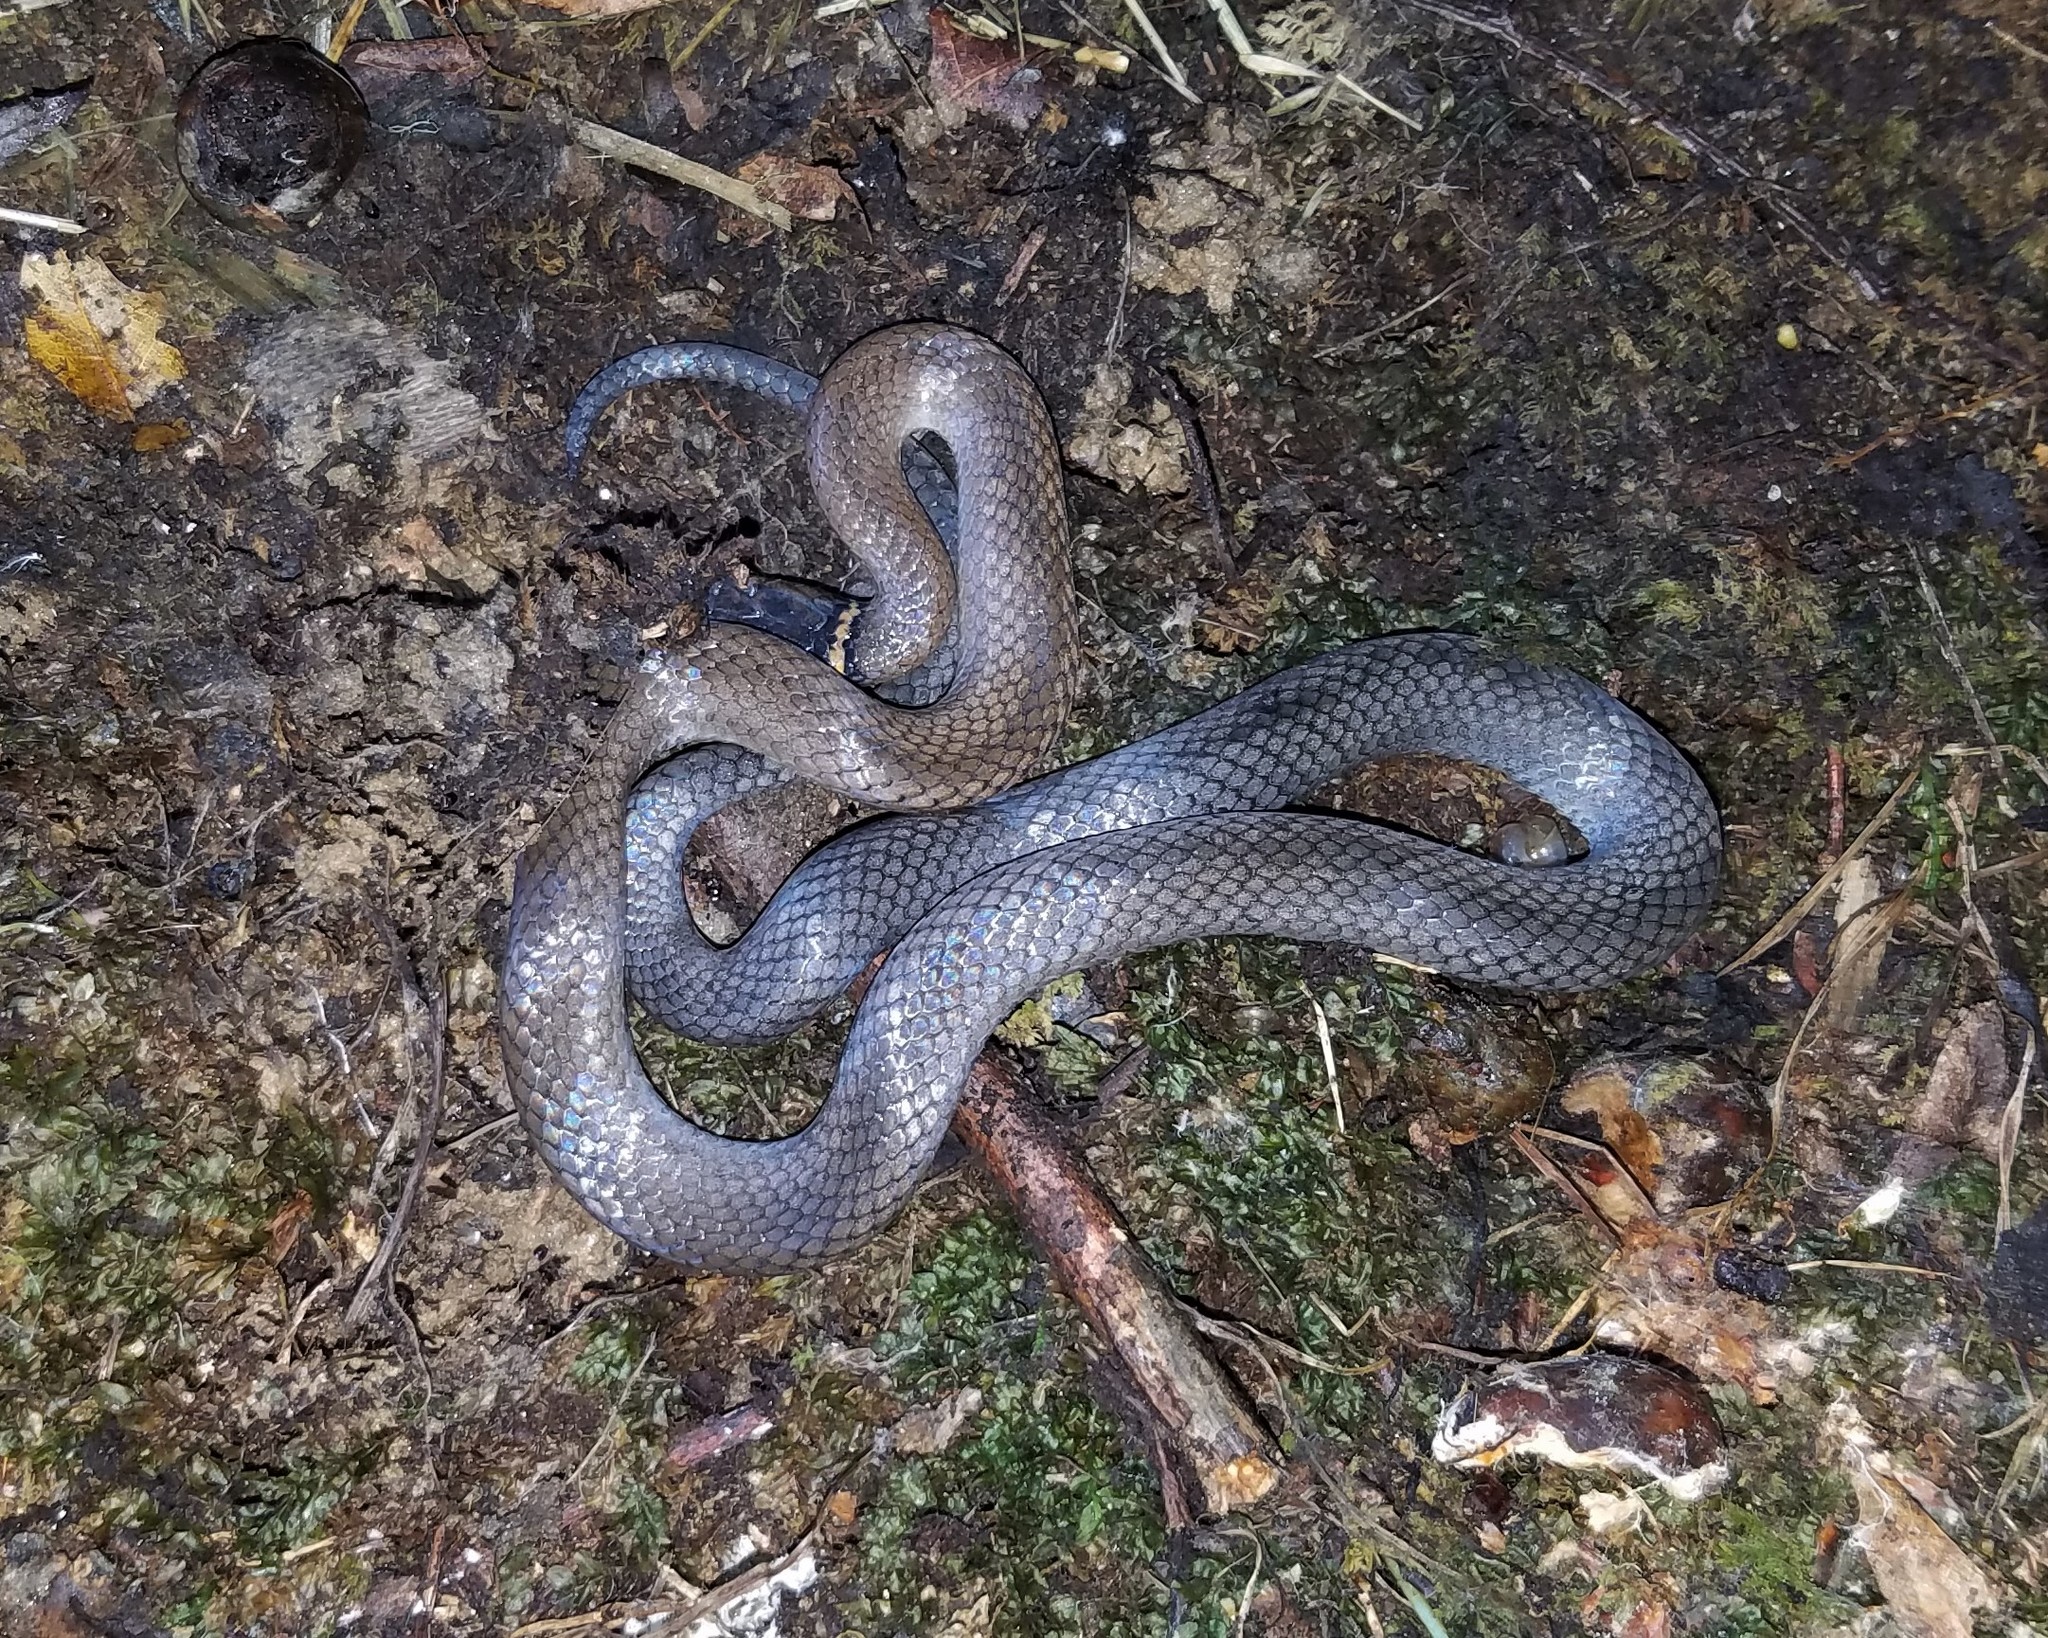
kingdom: Animalia
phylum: Chordata
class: Squamata
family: Colubridae
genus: Diadophis
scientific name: Diadophis punctatus
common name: Ringneck snake
